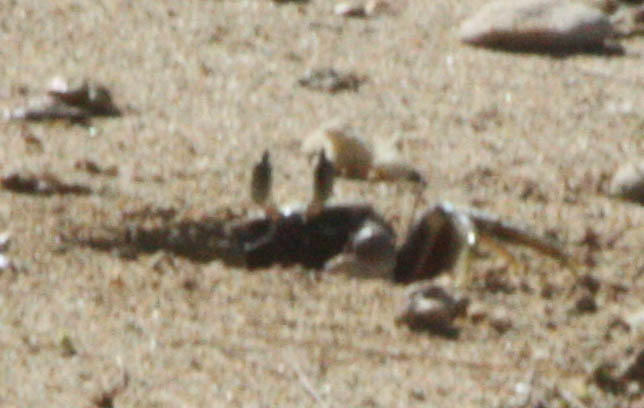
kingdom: Animalia
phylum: Arthropoda
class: Malacostraca
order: Decapoda
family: Ocypodidae
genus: Ocypode
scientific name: Ocypode ceratophthalmus
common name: Indo-pacific ghost crab
